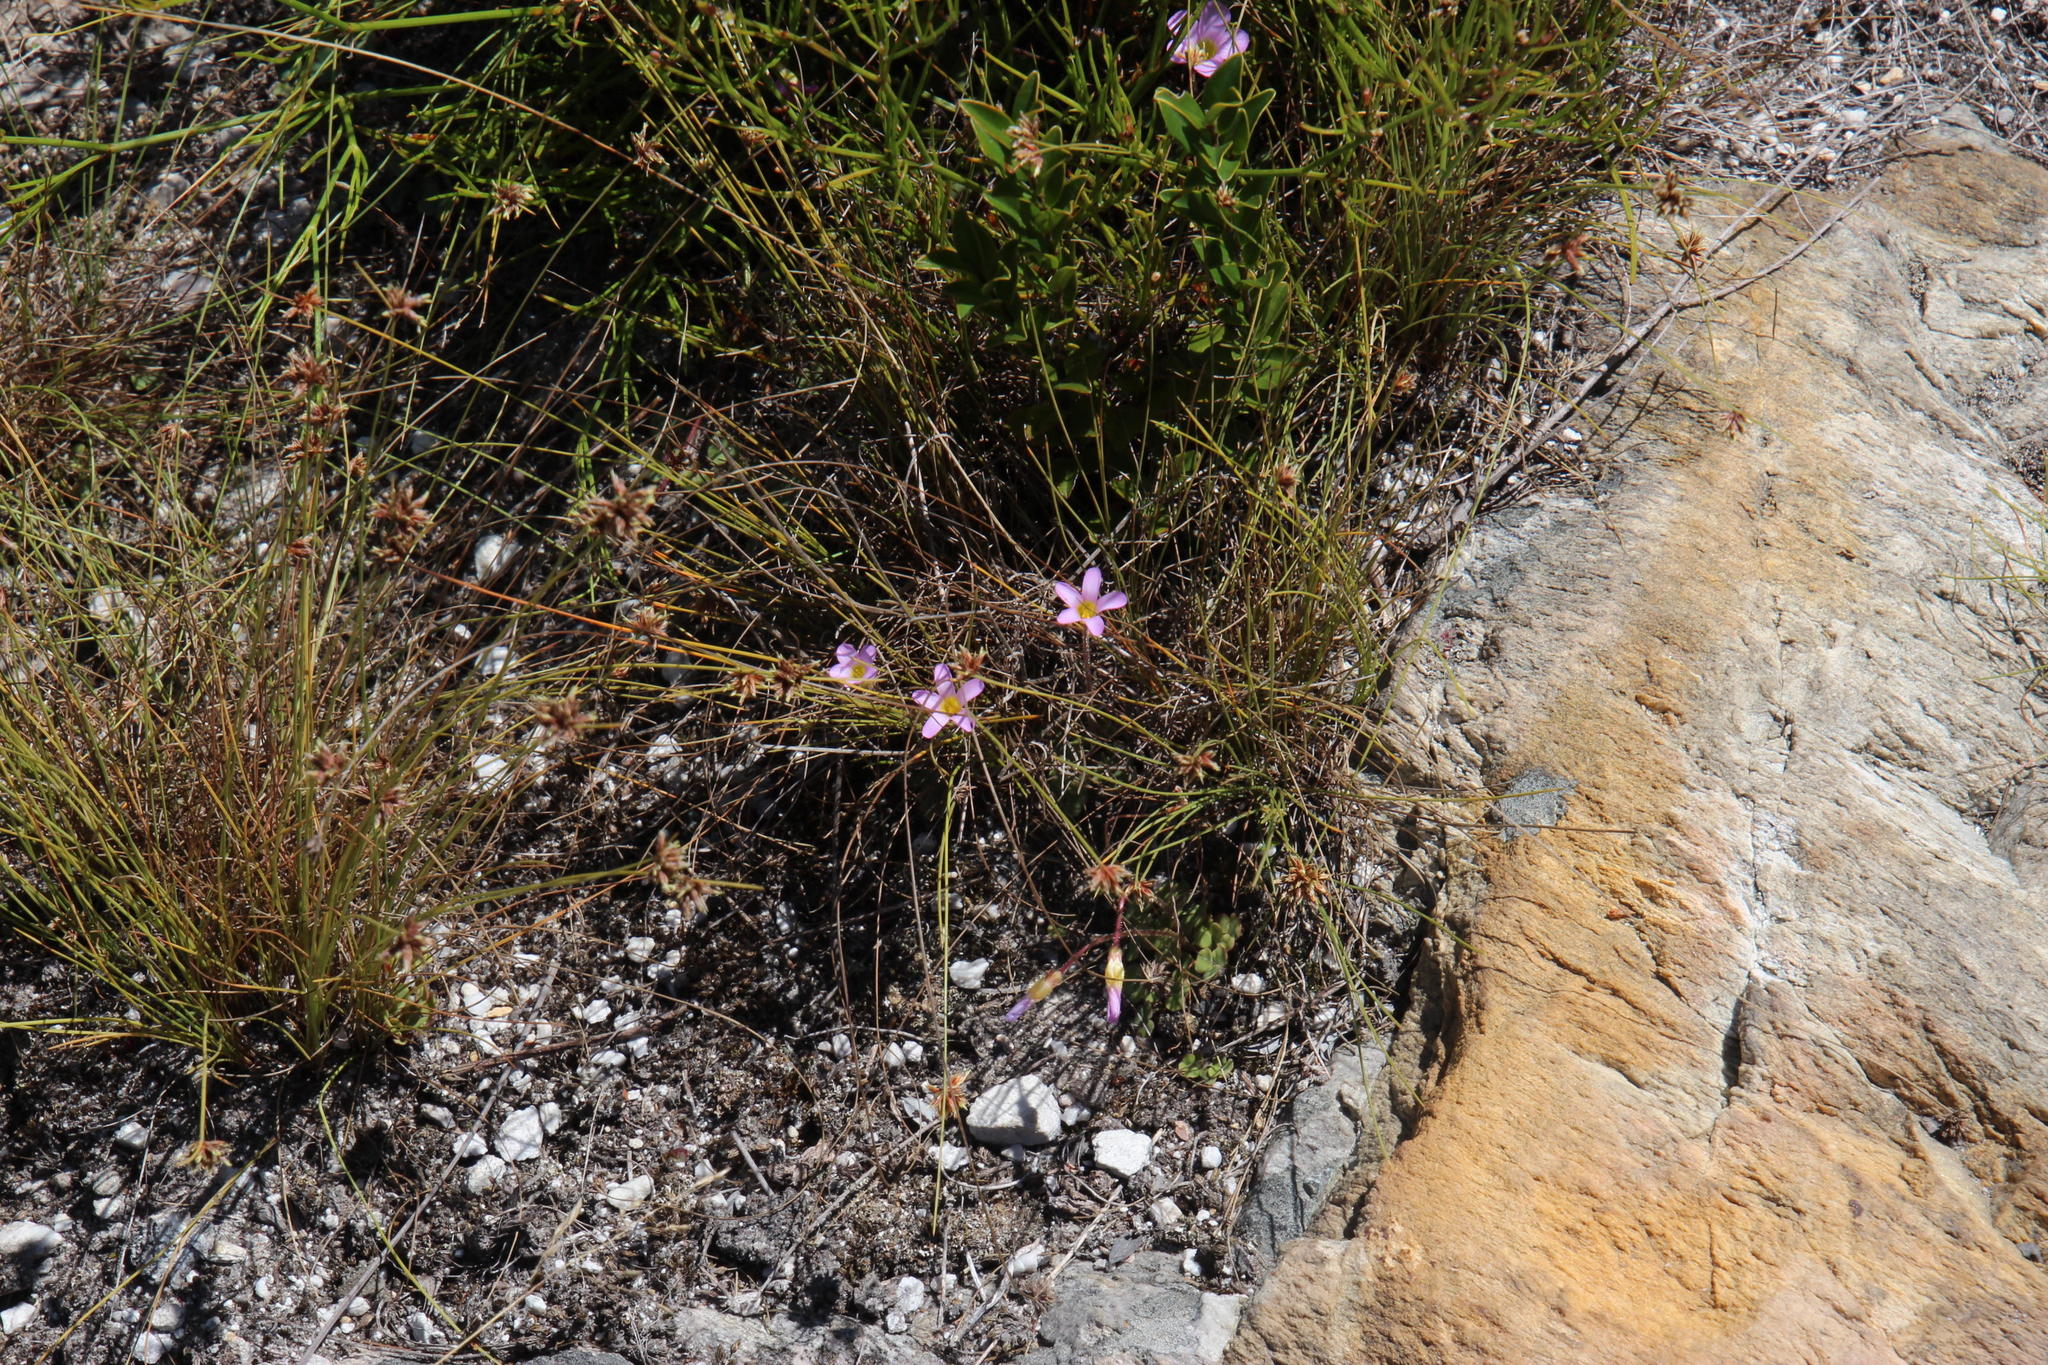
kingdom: Plantae
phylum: Tracheophyta
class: Magnoliopsida
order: Oxalidales
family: Oxalidaceae
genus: Oxalis
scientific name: Oxalis punctata
